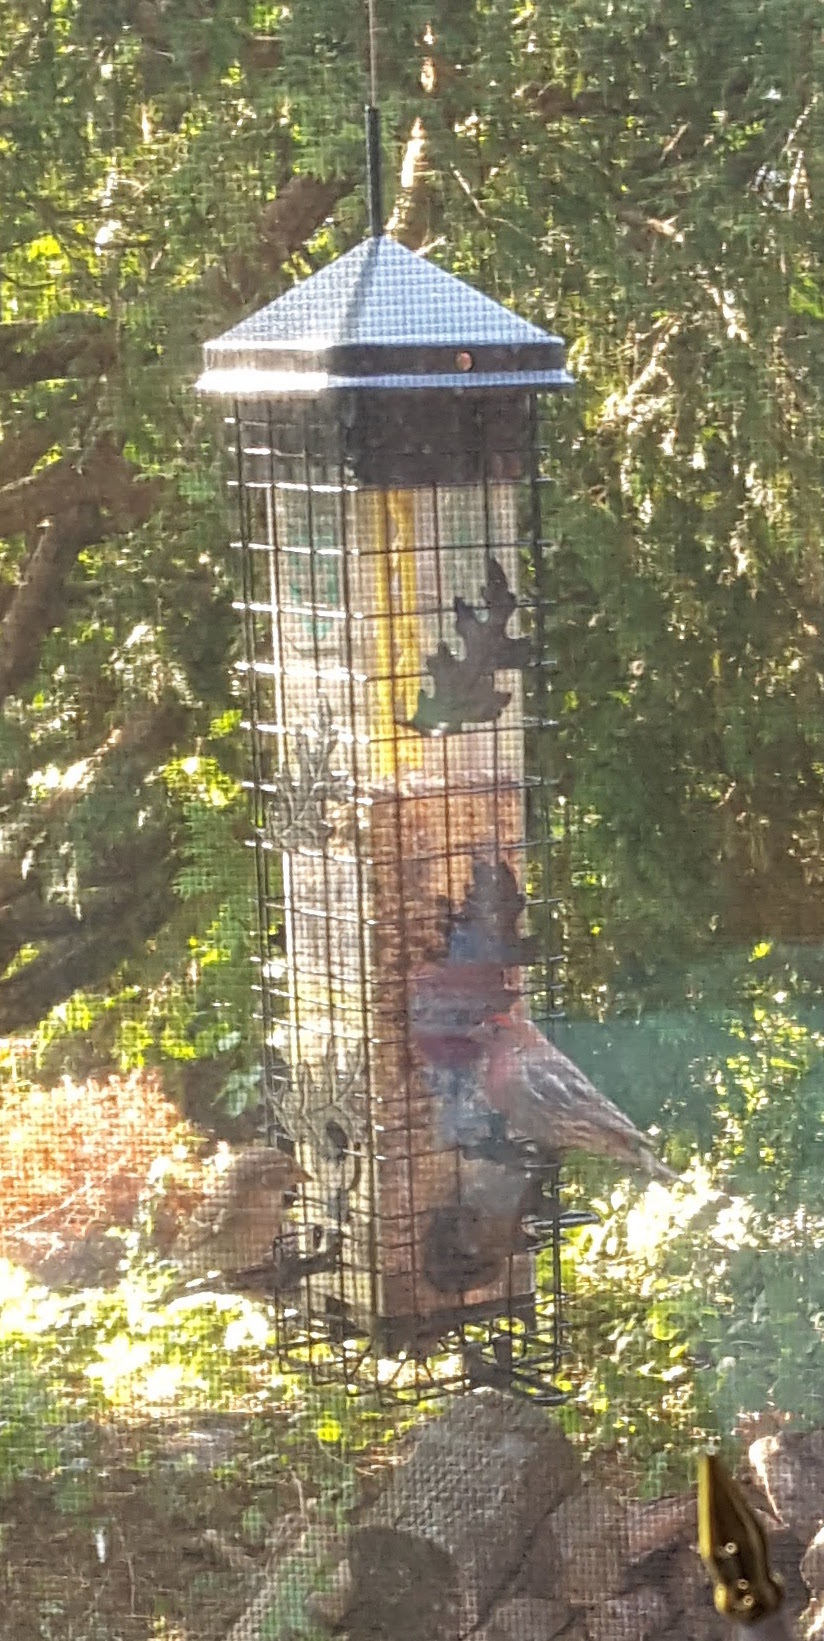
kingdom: Animalia
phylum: Chordata
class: Aves
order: Passeriformes
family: Fringillidae
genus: Haemorhous
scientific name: Haemorhous mexicanus
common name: House finch
